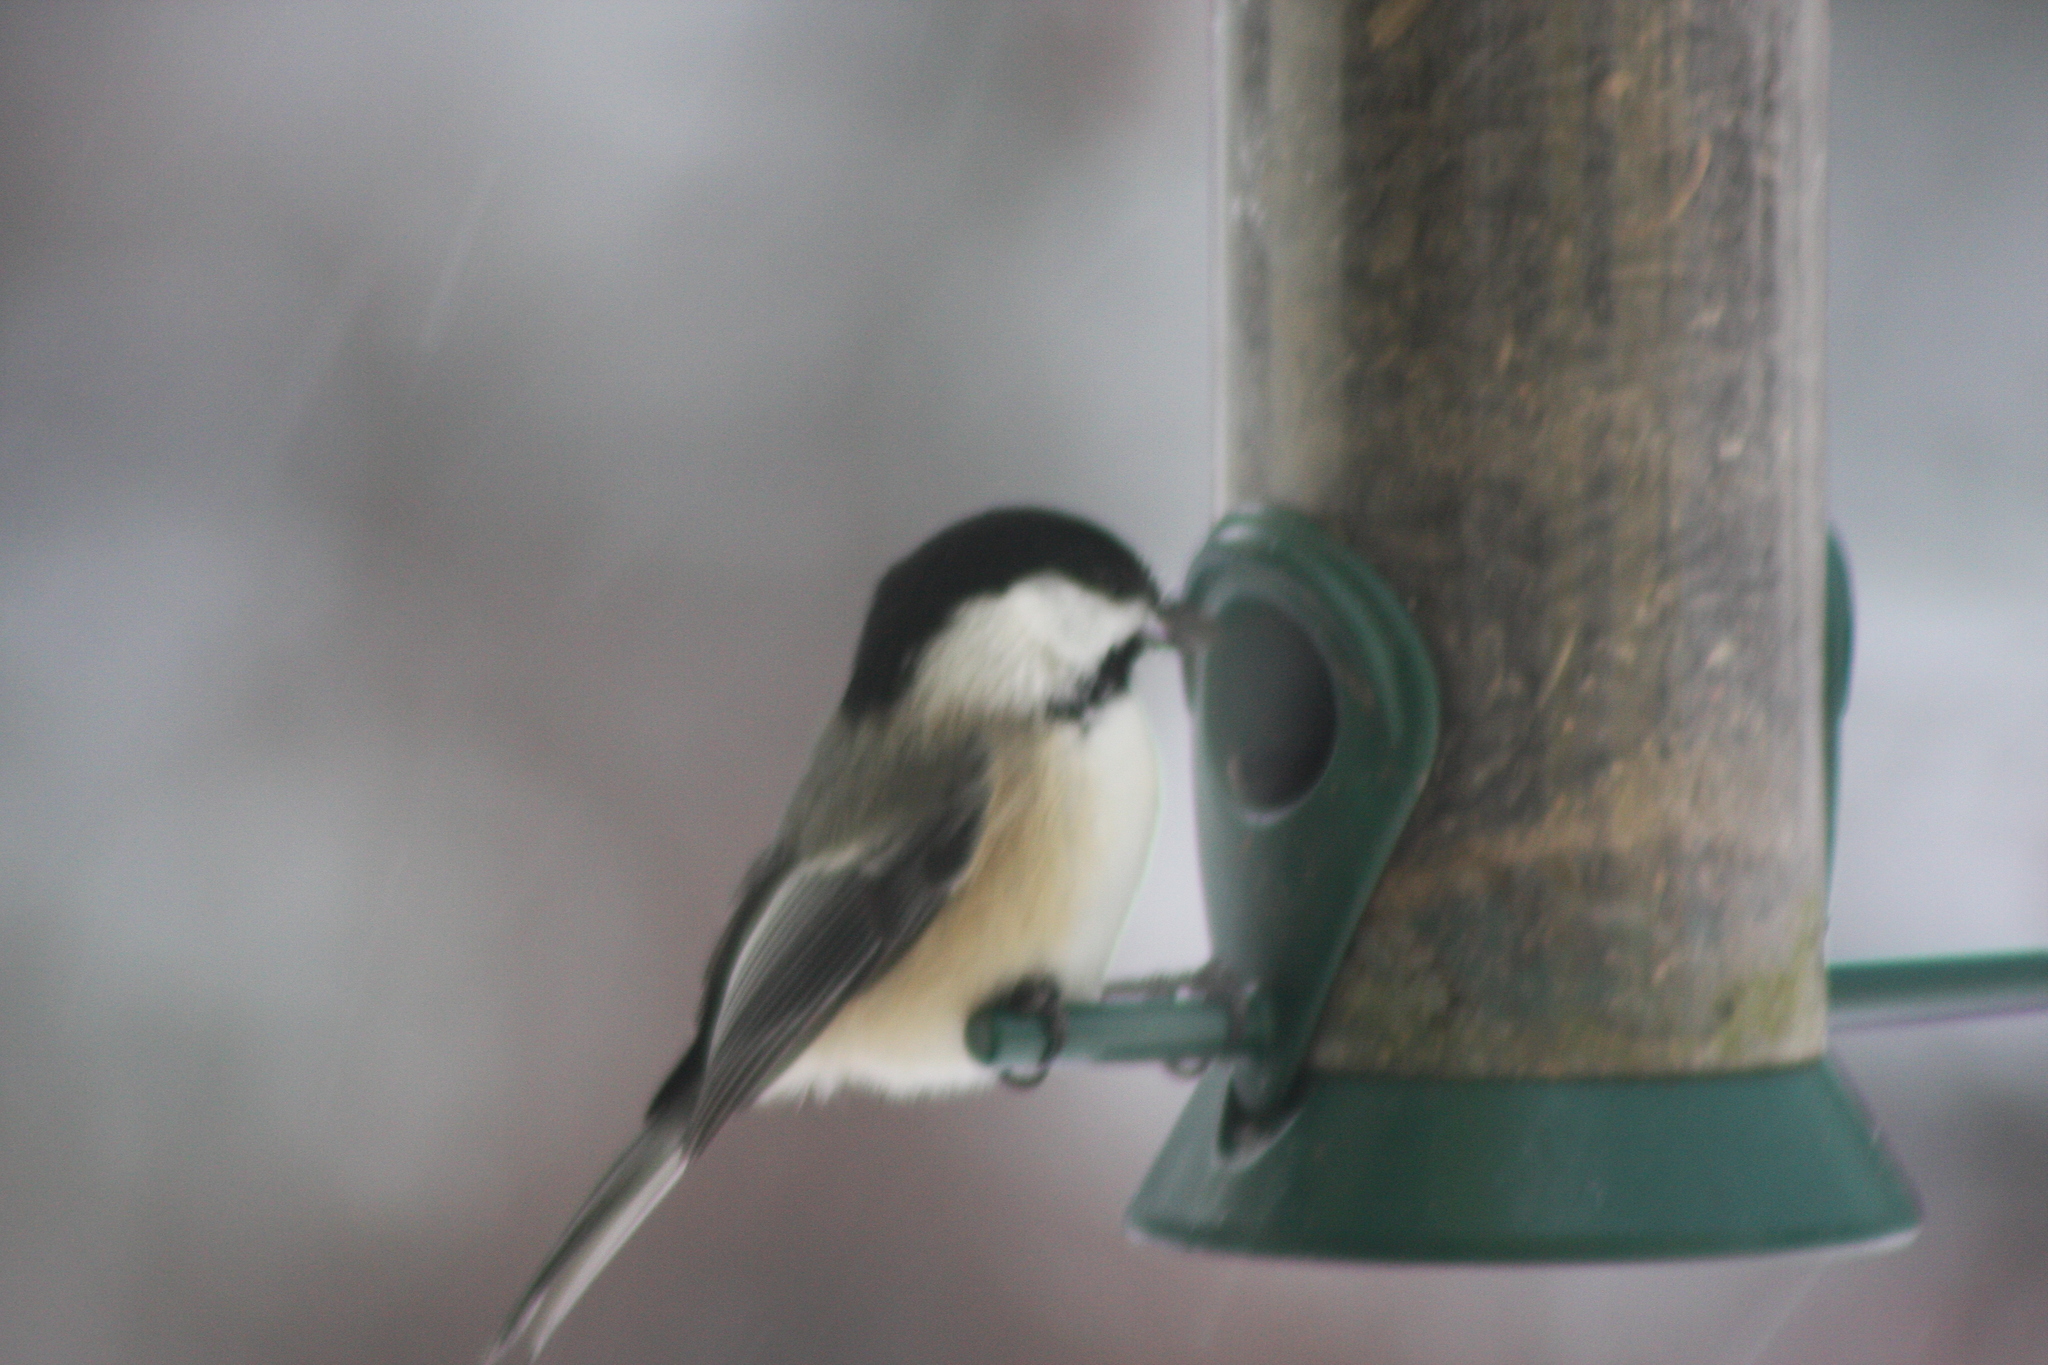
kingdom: Animalia
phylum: Chordata
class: Aves
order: Passeriformes
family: Paridae
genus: Poecile
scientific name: Poecile atricapillus
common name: Black-capped chickadee
